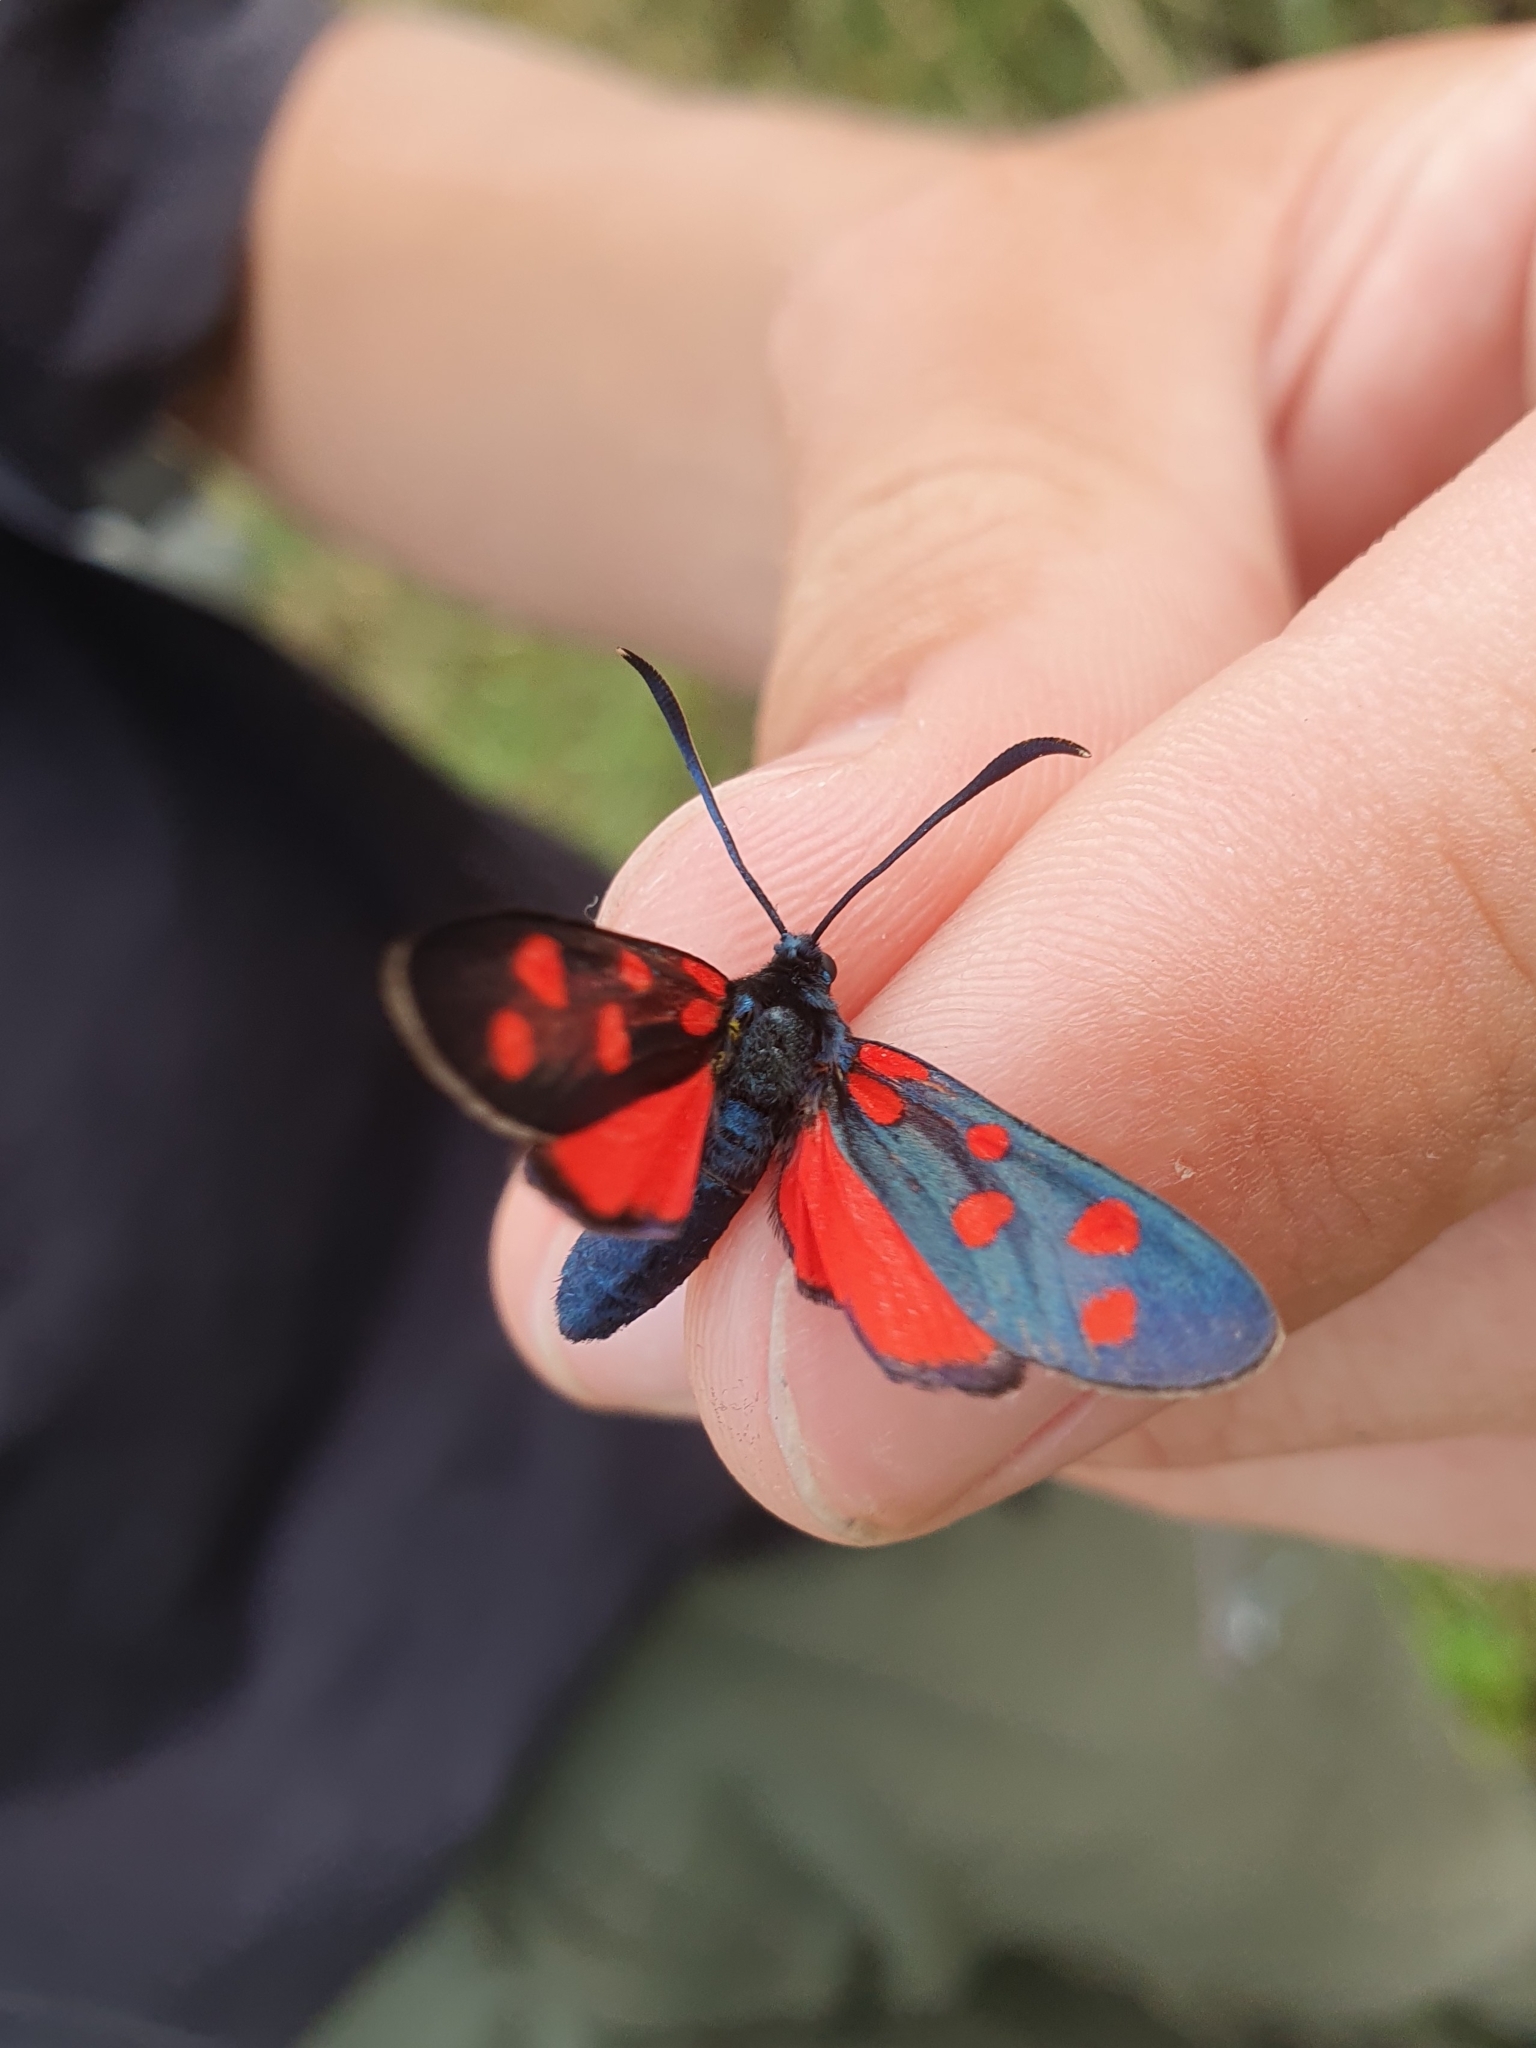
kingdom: Animalia
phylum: Arthropoda
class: Insecta
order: Lepidoptera
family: Zygaenidae
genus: Zygaena
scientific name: Zygaena transalpina
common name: Southern six spot burnet
